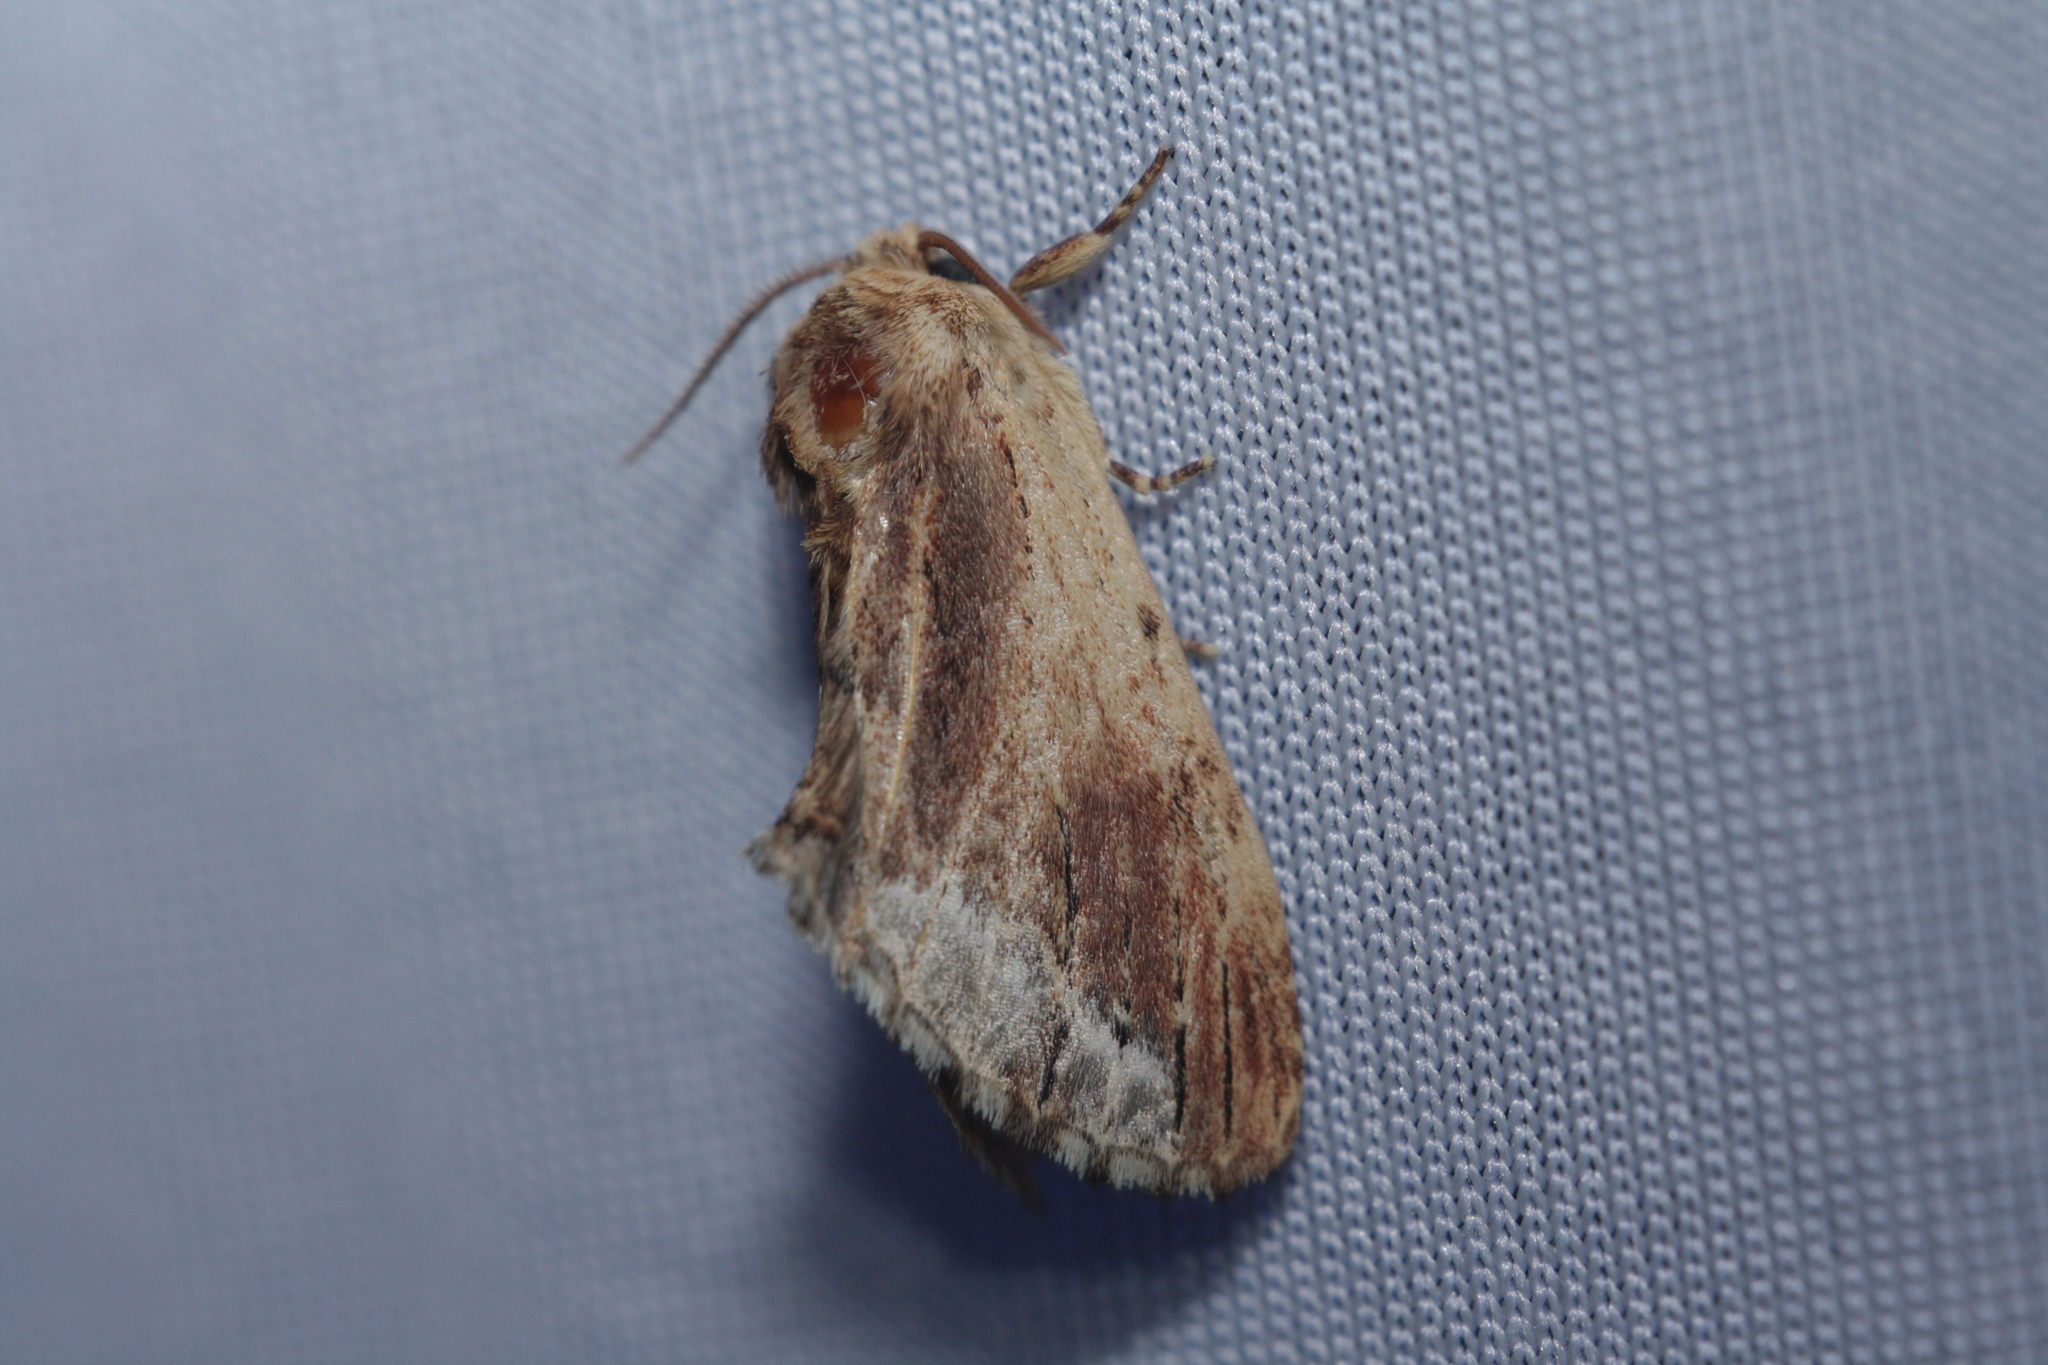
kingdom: Animalia
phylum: Arthropoda
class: Insecta
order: Lepidoptera
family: Notodontidae
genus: Ptilodon
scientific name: Ptilodon cucullina
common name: Maple prominent
